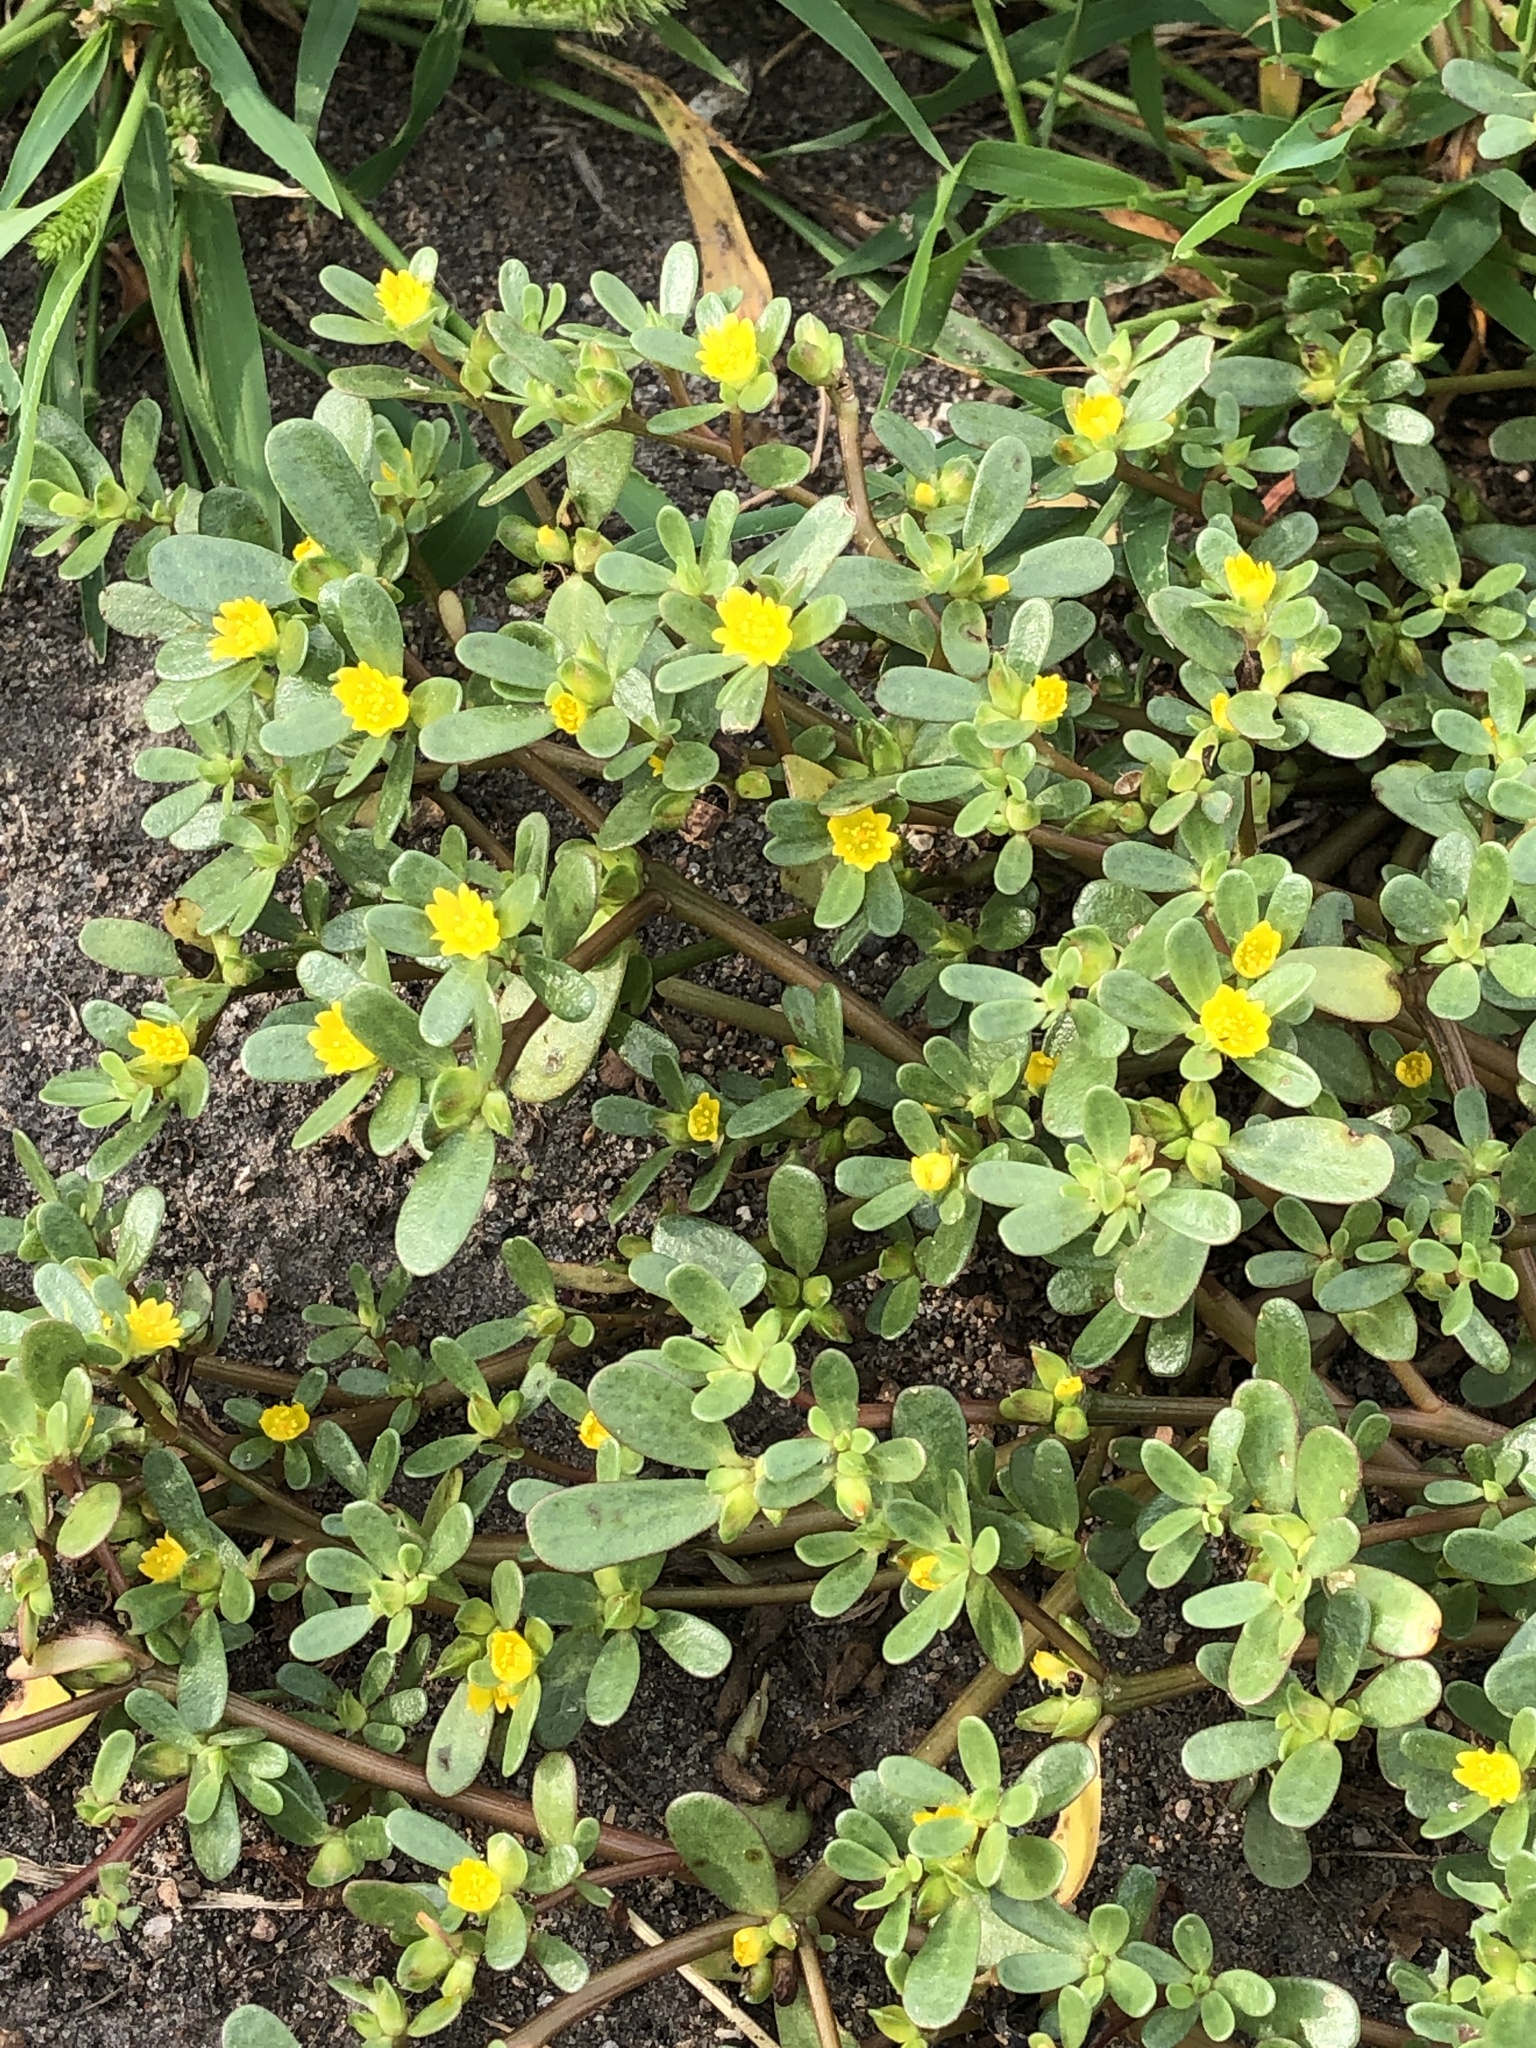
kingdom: Plantae
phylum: Tracheophyta
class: Magnoliopsida
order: Caryophyllales
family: Portulacaceae
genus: Portulaca
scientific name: Portulaca oleracea
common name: Common purslane
